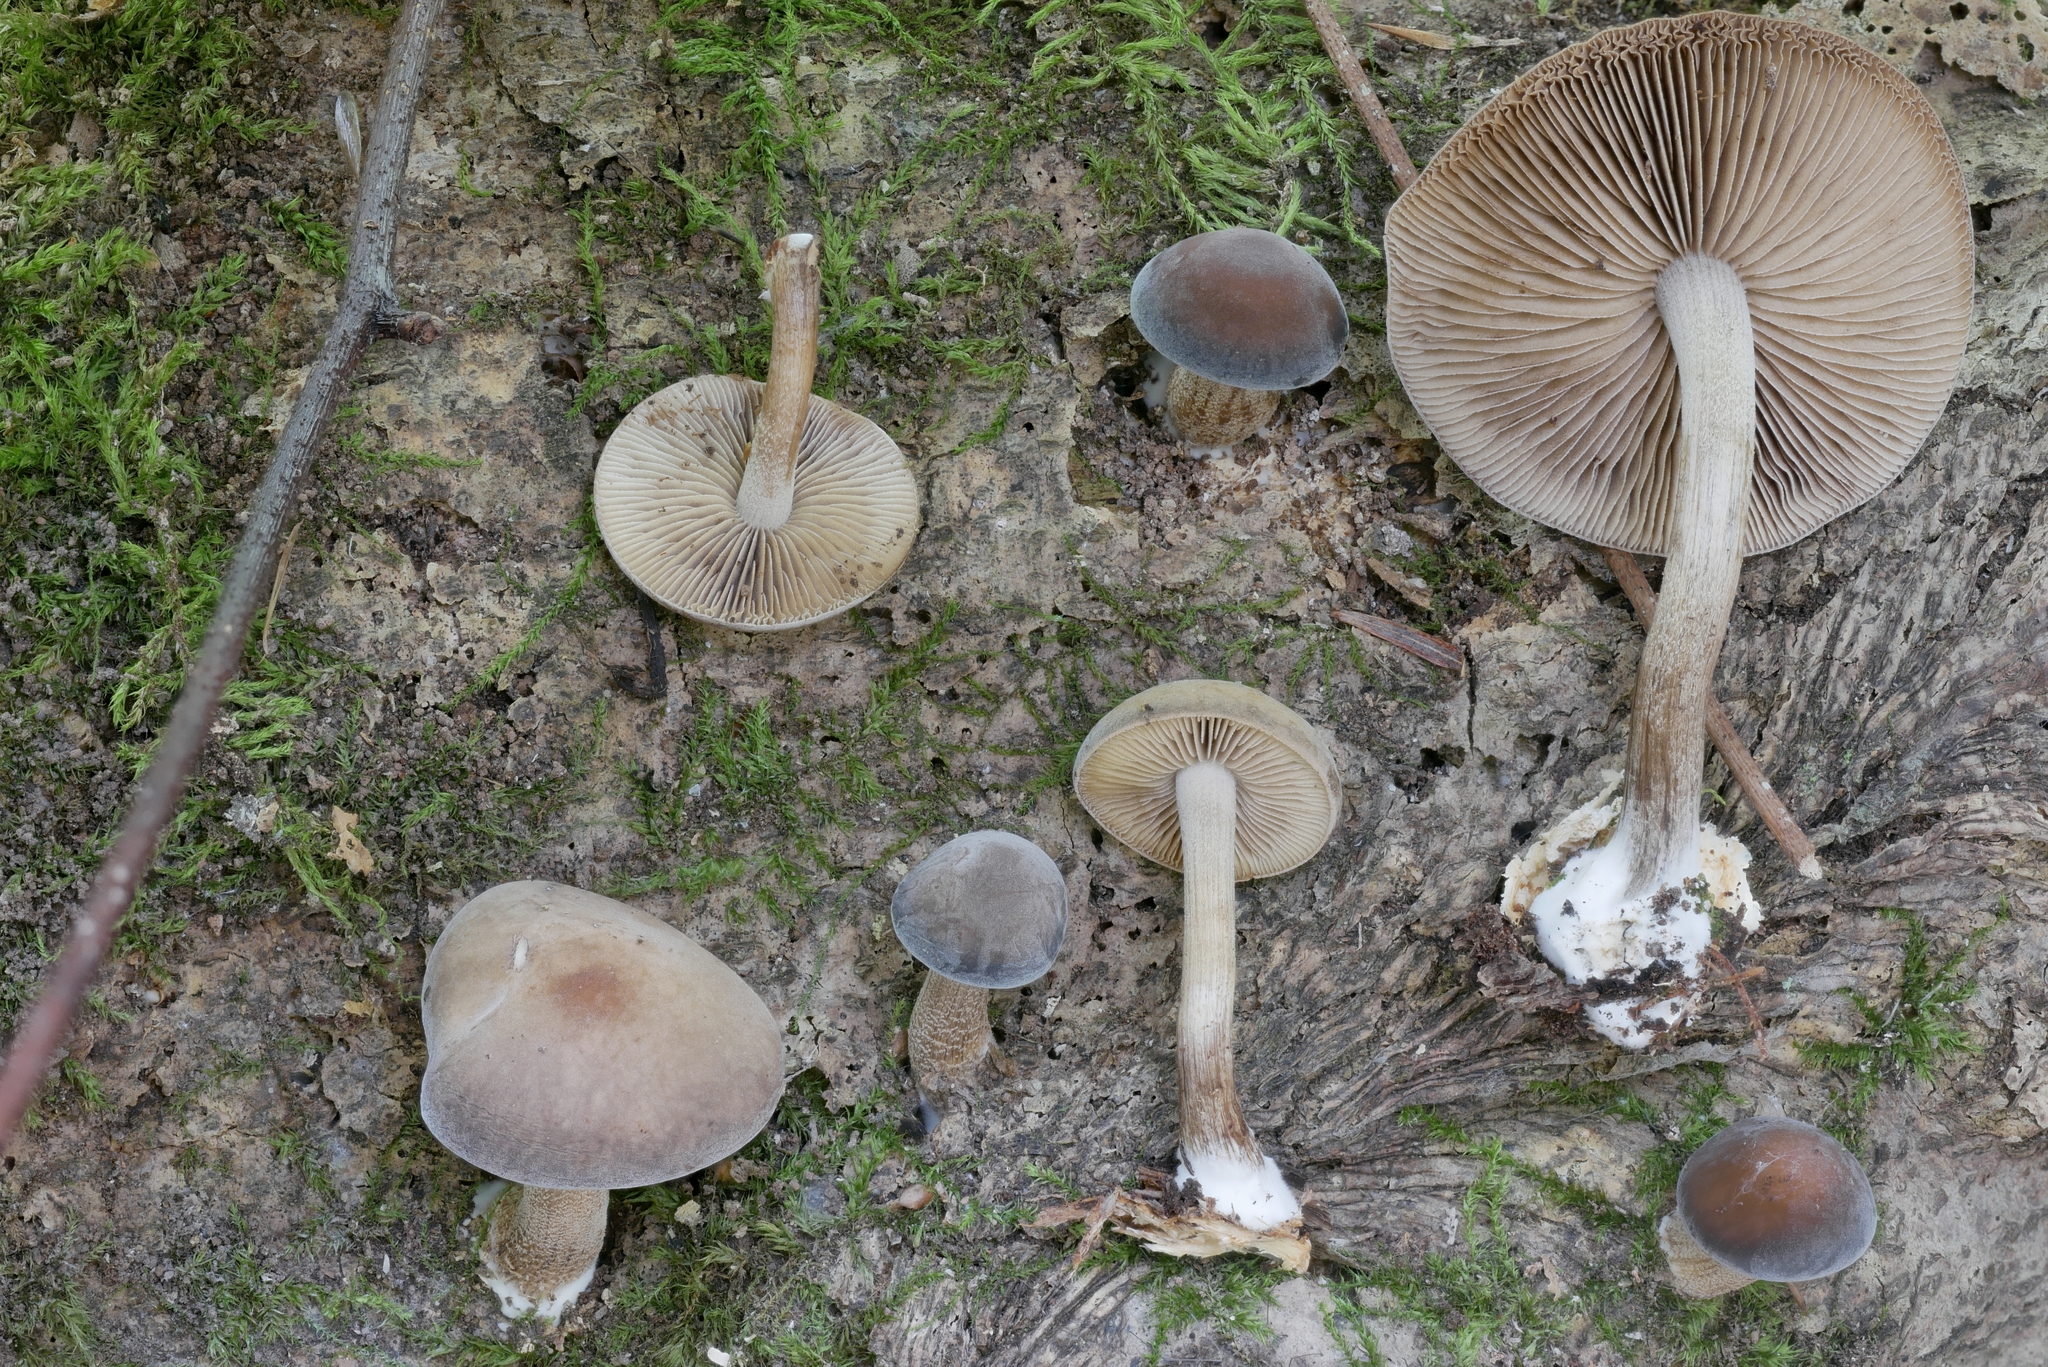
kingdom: Fungi
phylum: Basidiomycota
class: Agaricomycetes
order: Agaricales
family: Strophariaceae
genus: Agrocybe
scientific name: Agrocybe firma
